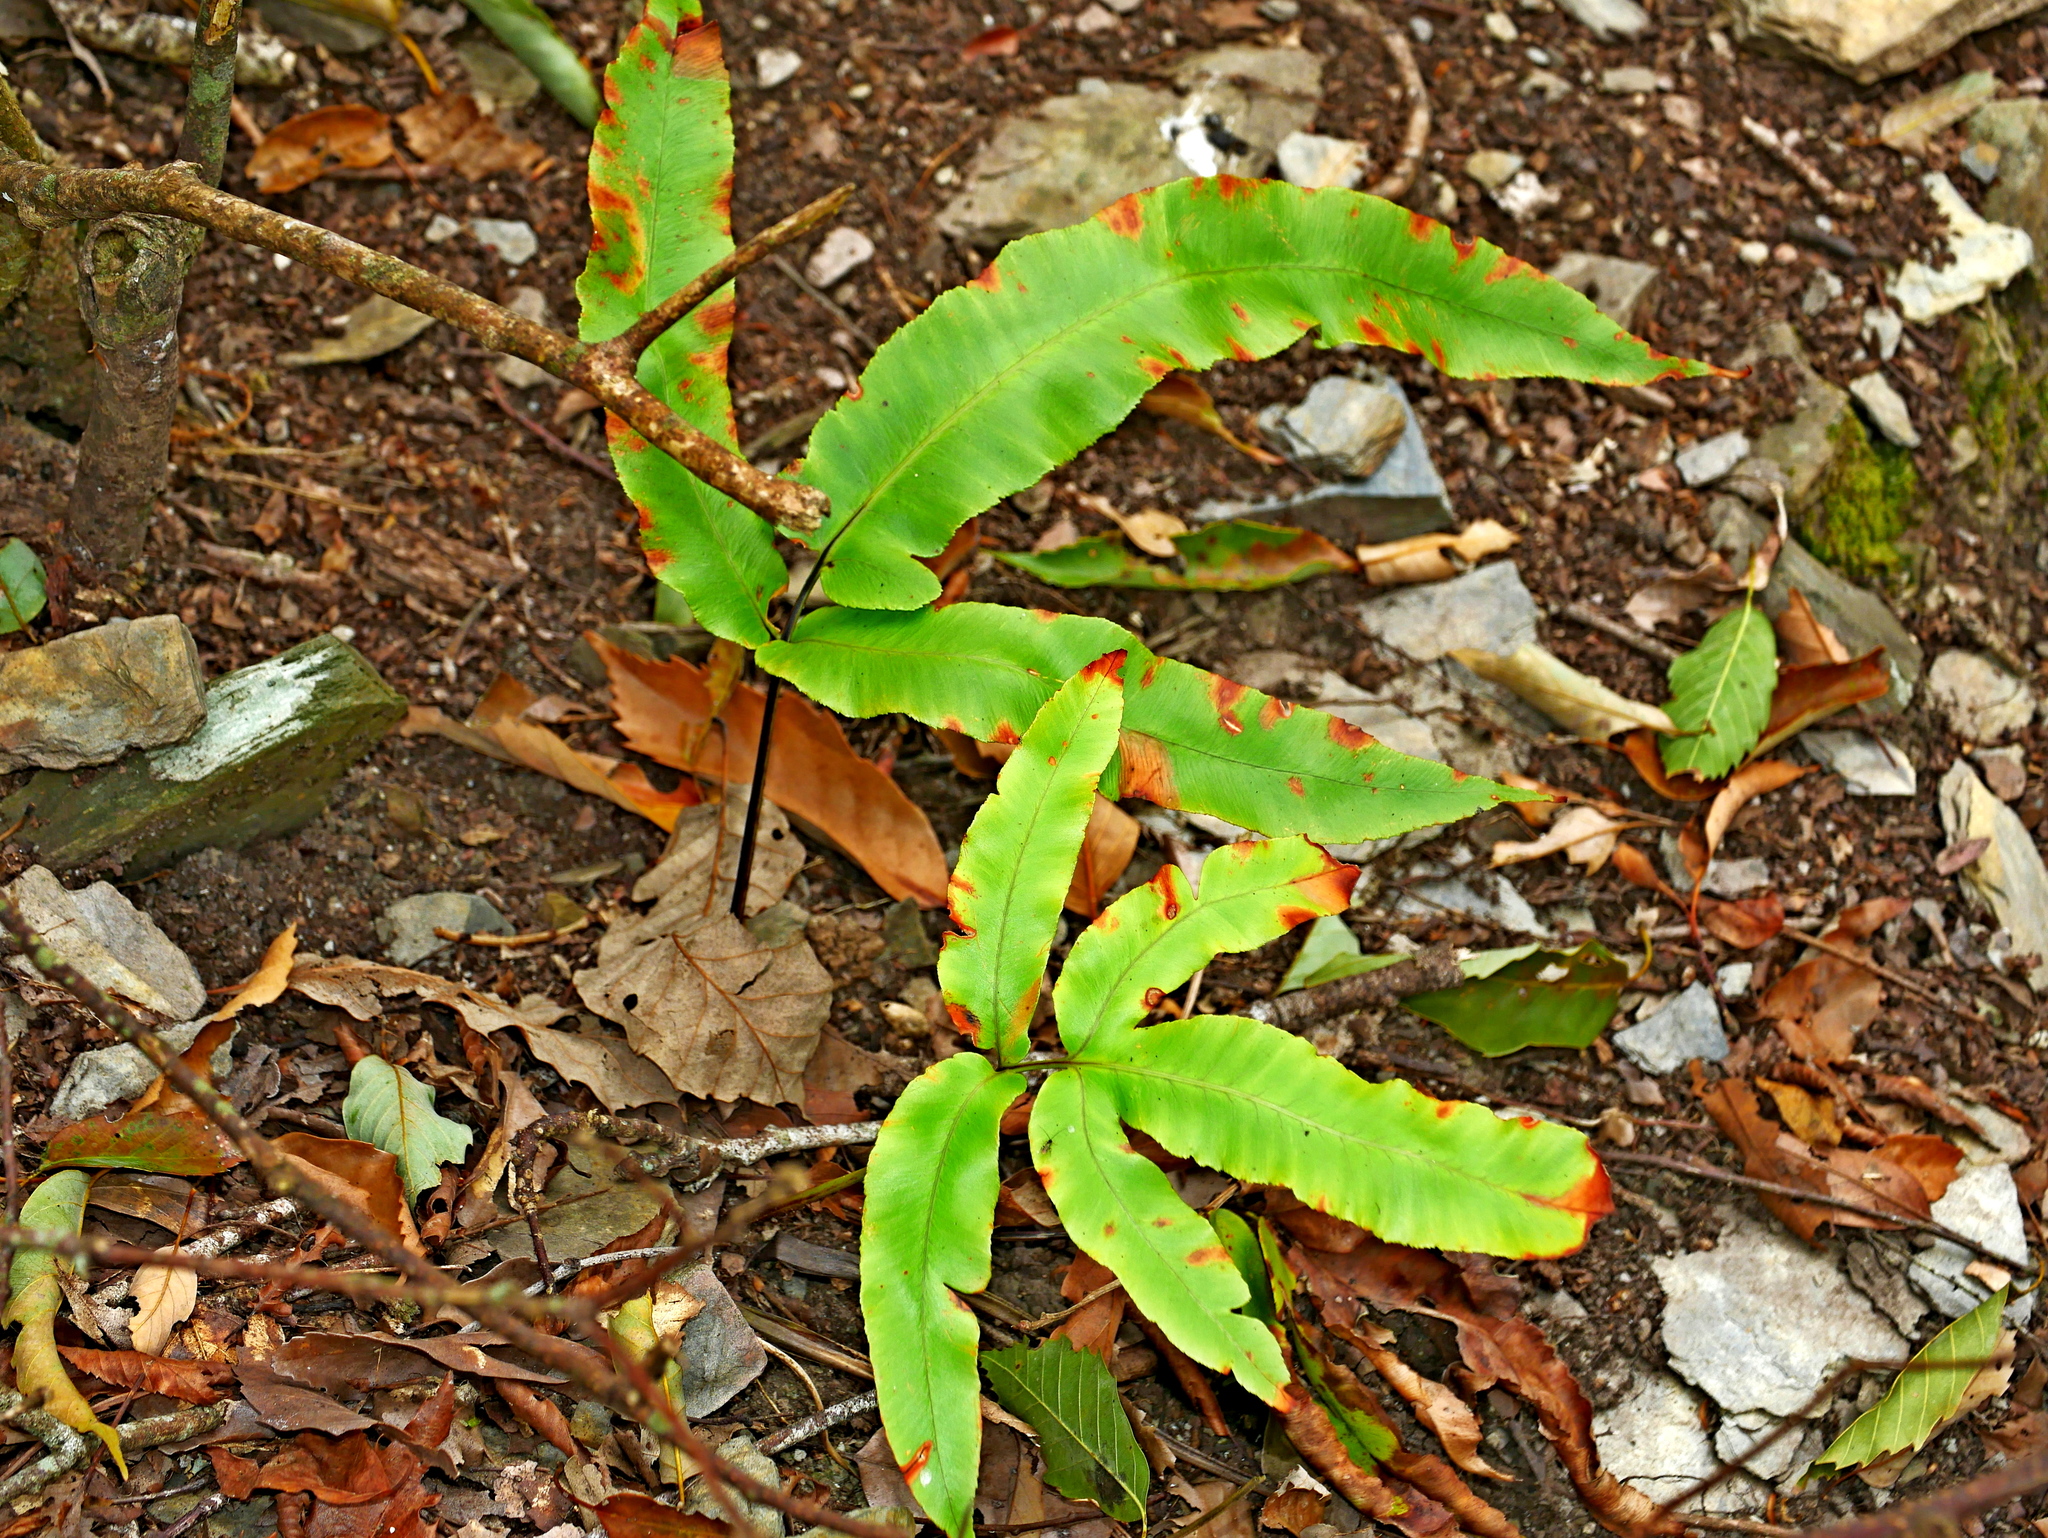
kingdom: Plantae
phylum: Tracheophyta
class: Polypodiopsida
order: Polypodiales
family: Dryopteridaceae
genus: Dryopteris
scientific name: Dryopteris enneaphylla
